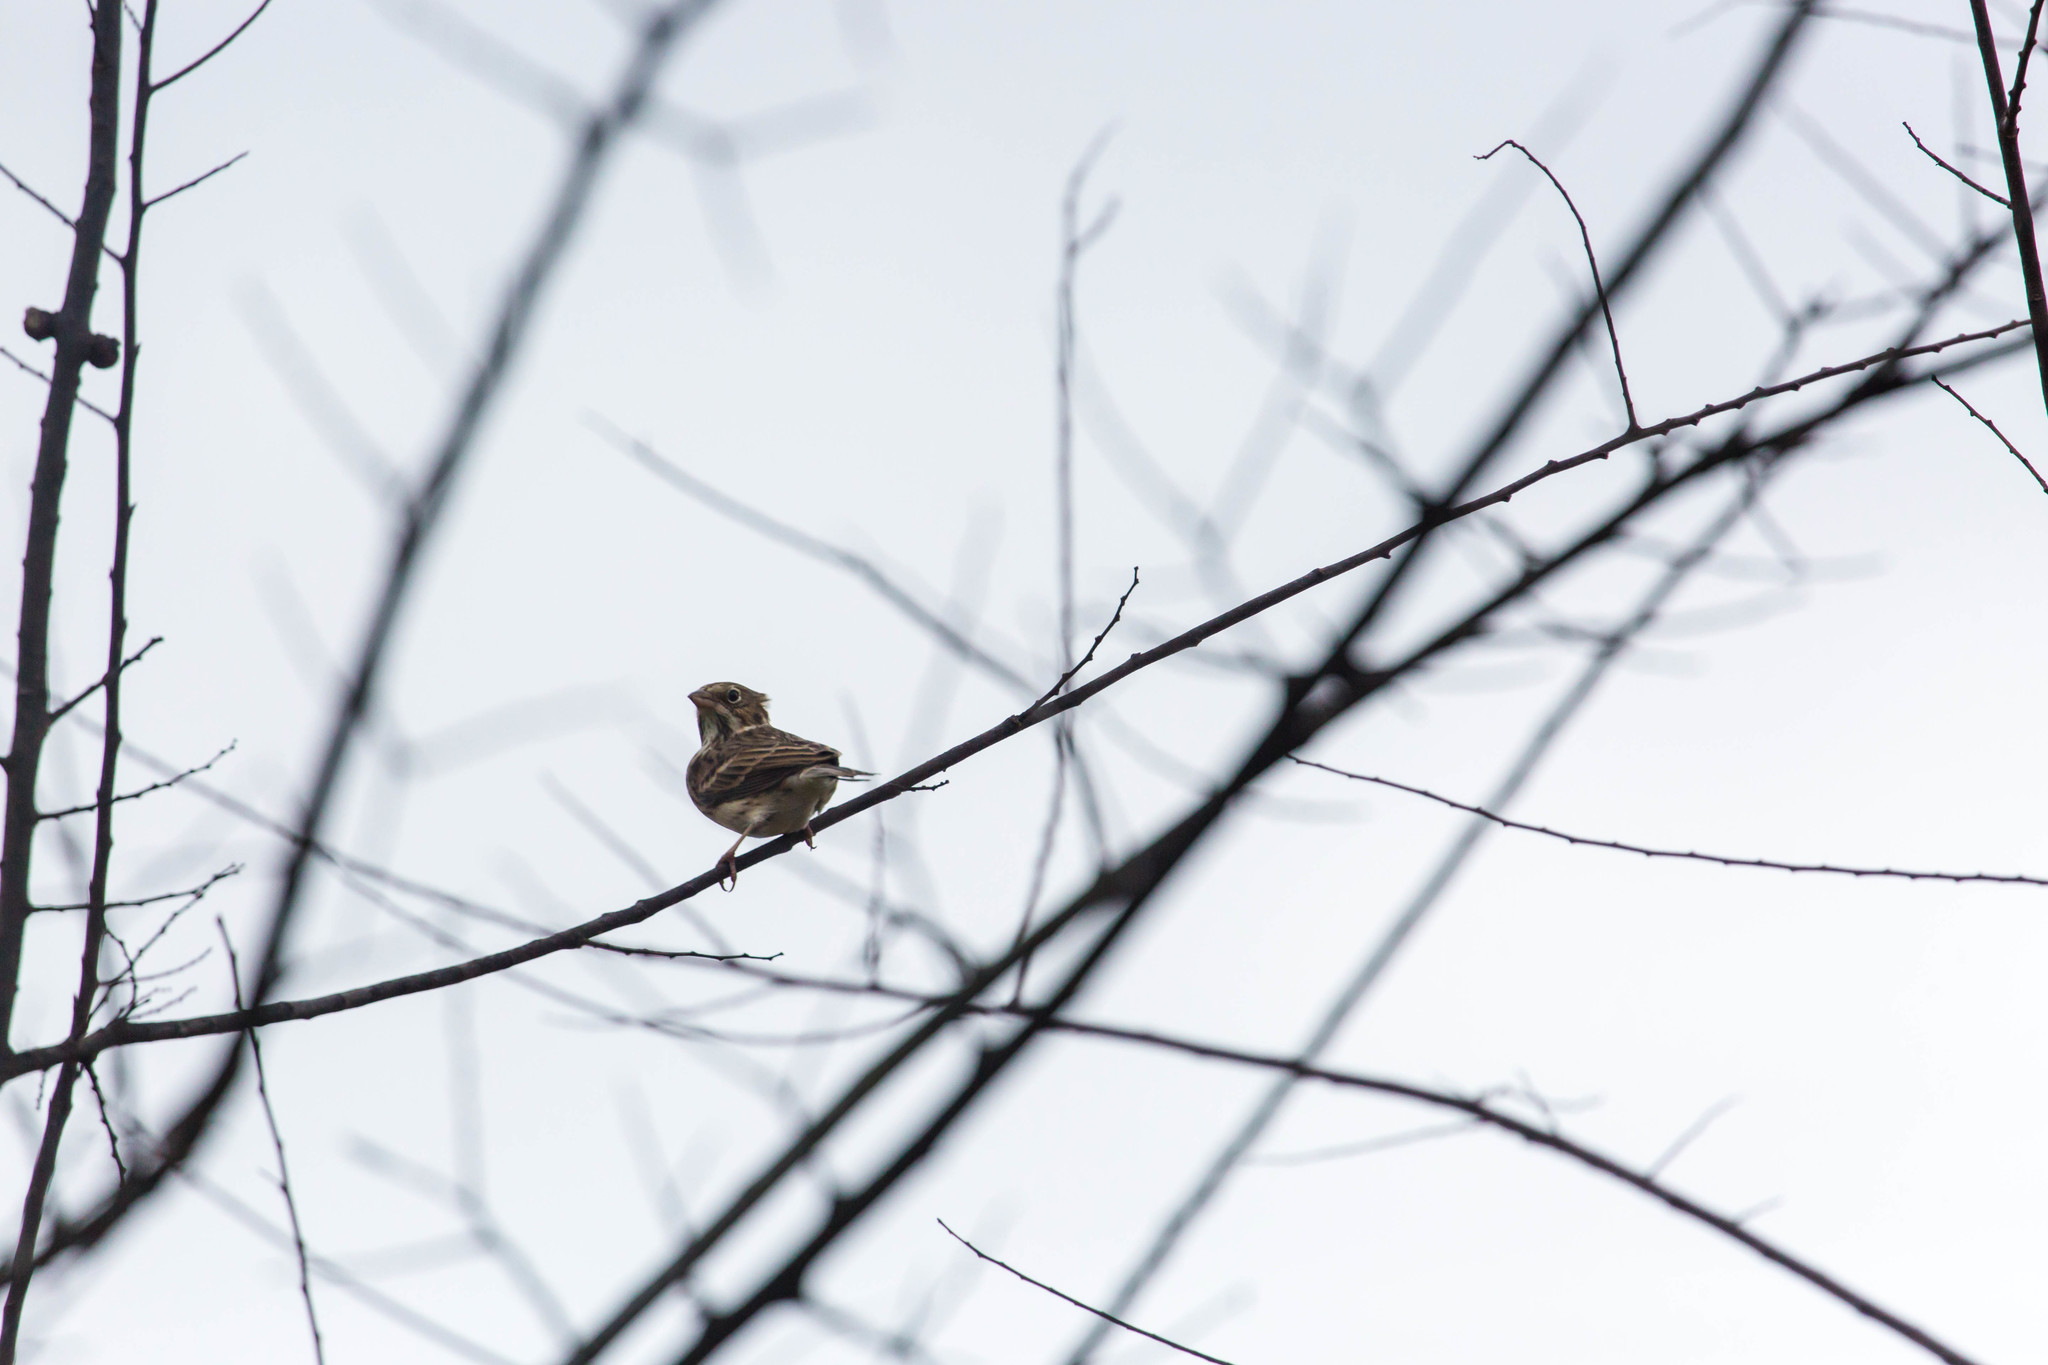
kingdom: Animalia
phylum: Chordata
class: Aves
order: Passeriformes
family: Passerellidae
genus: Pooecetes
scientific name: Pooecetes gramineus
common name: Vesper sparrow
